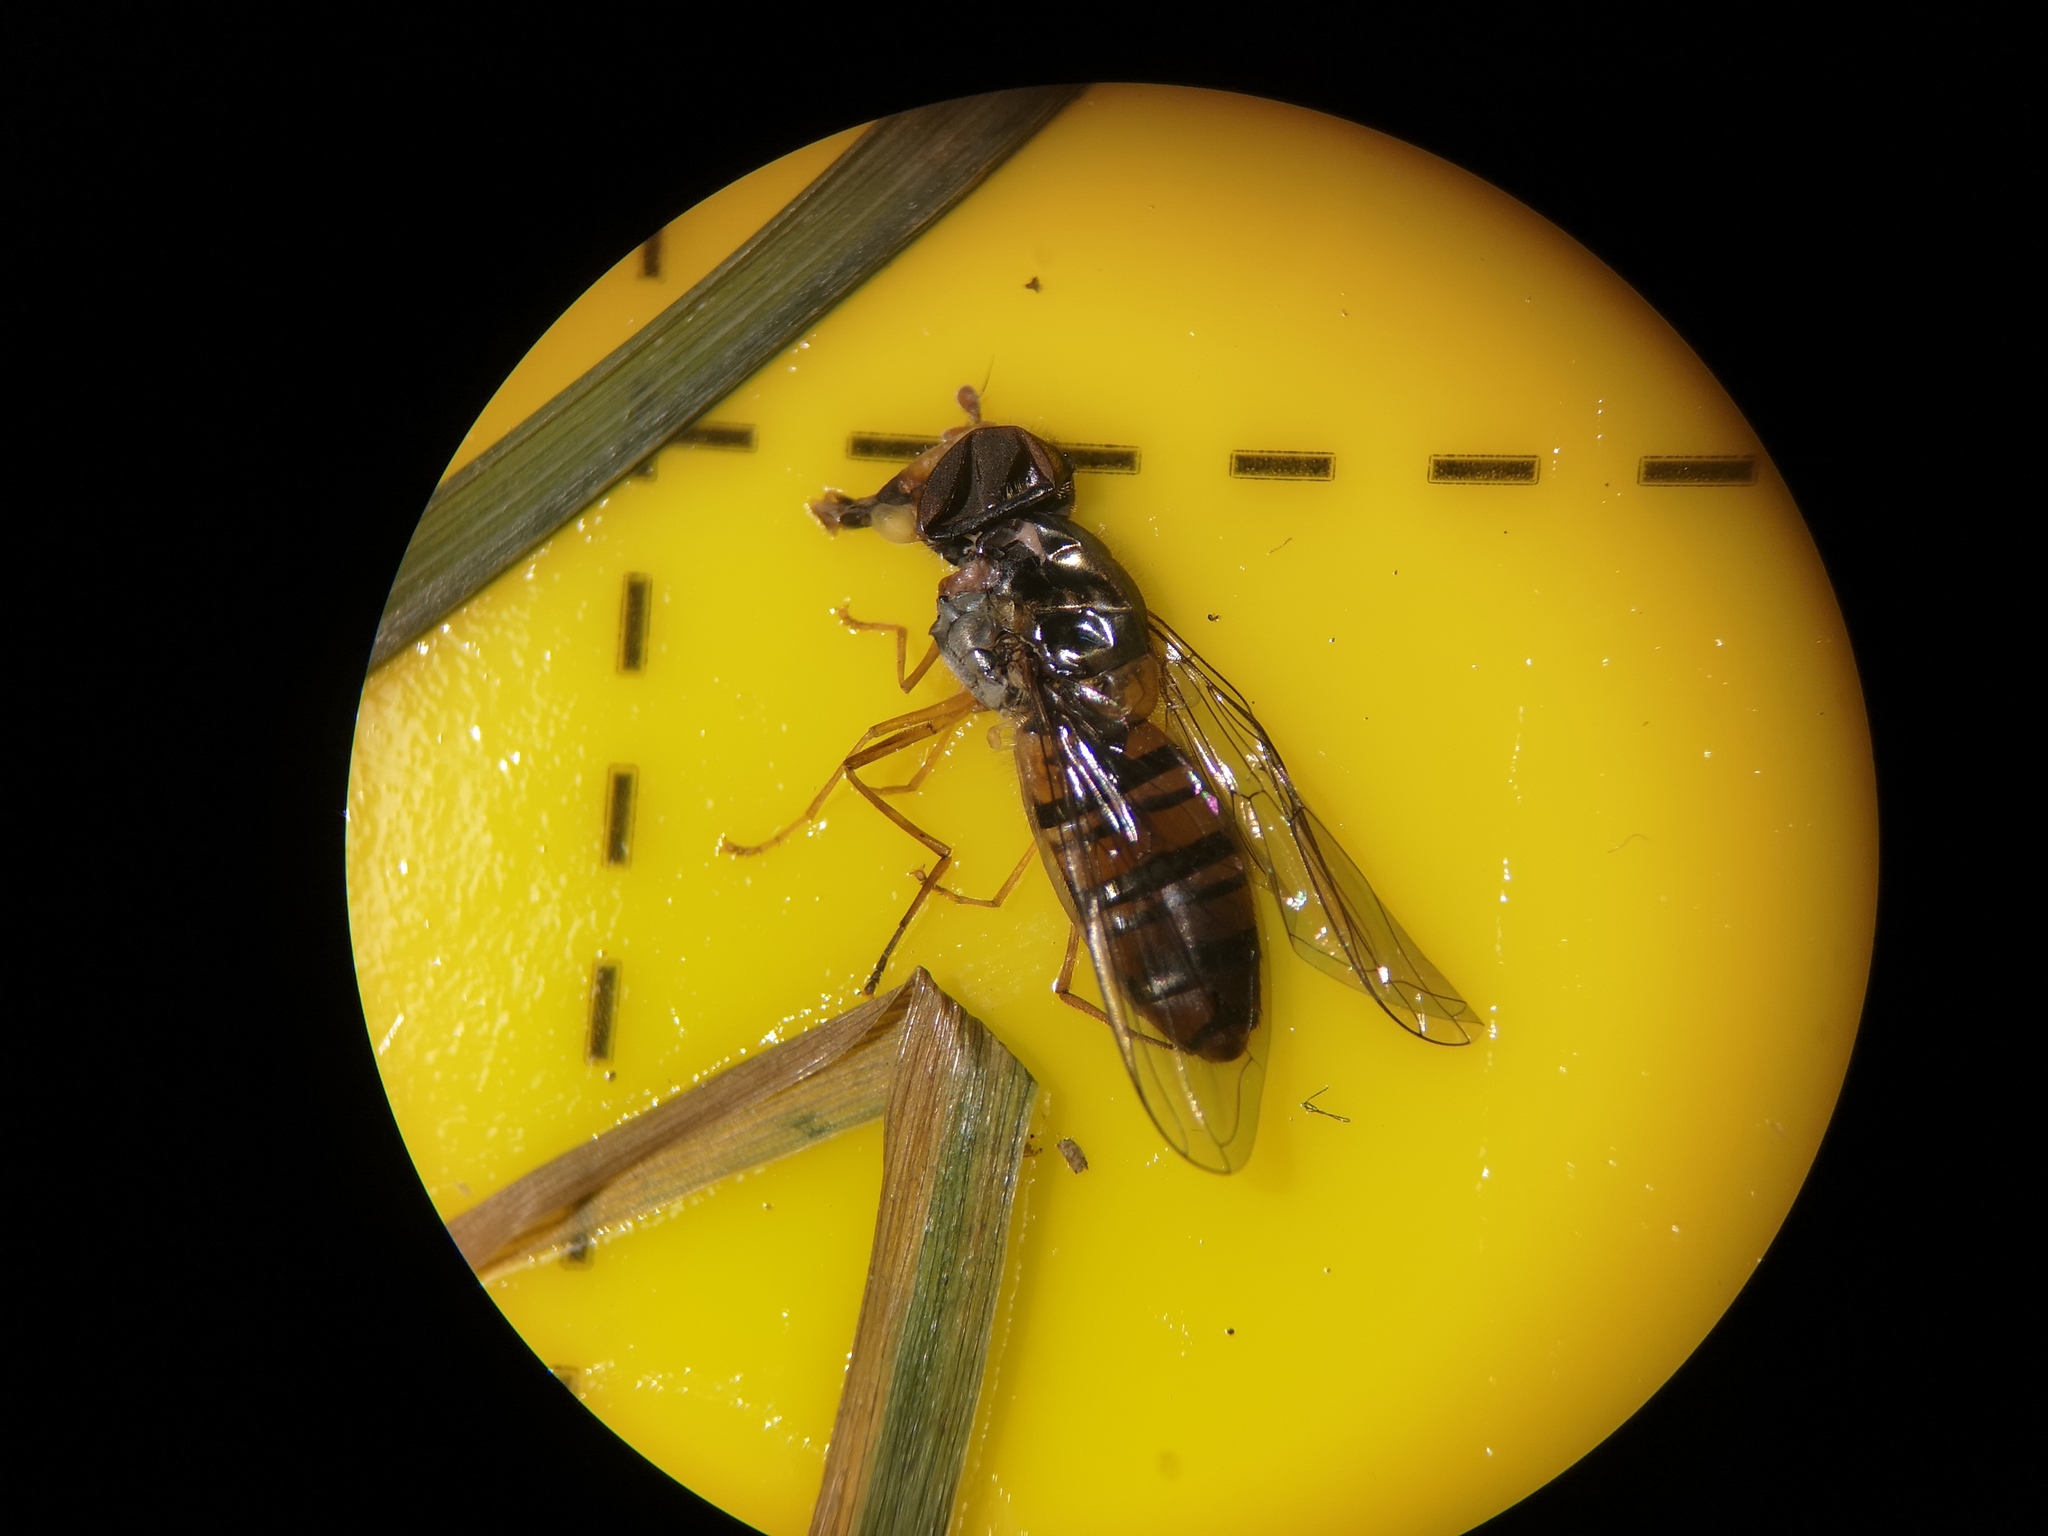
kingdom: Animalia
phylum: Arthropoda
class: Insecta
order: Diptera
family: Syrphidae
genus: Episyrphus
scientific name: Episyrphus balteatus
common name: Marmalade hoverfly
